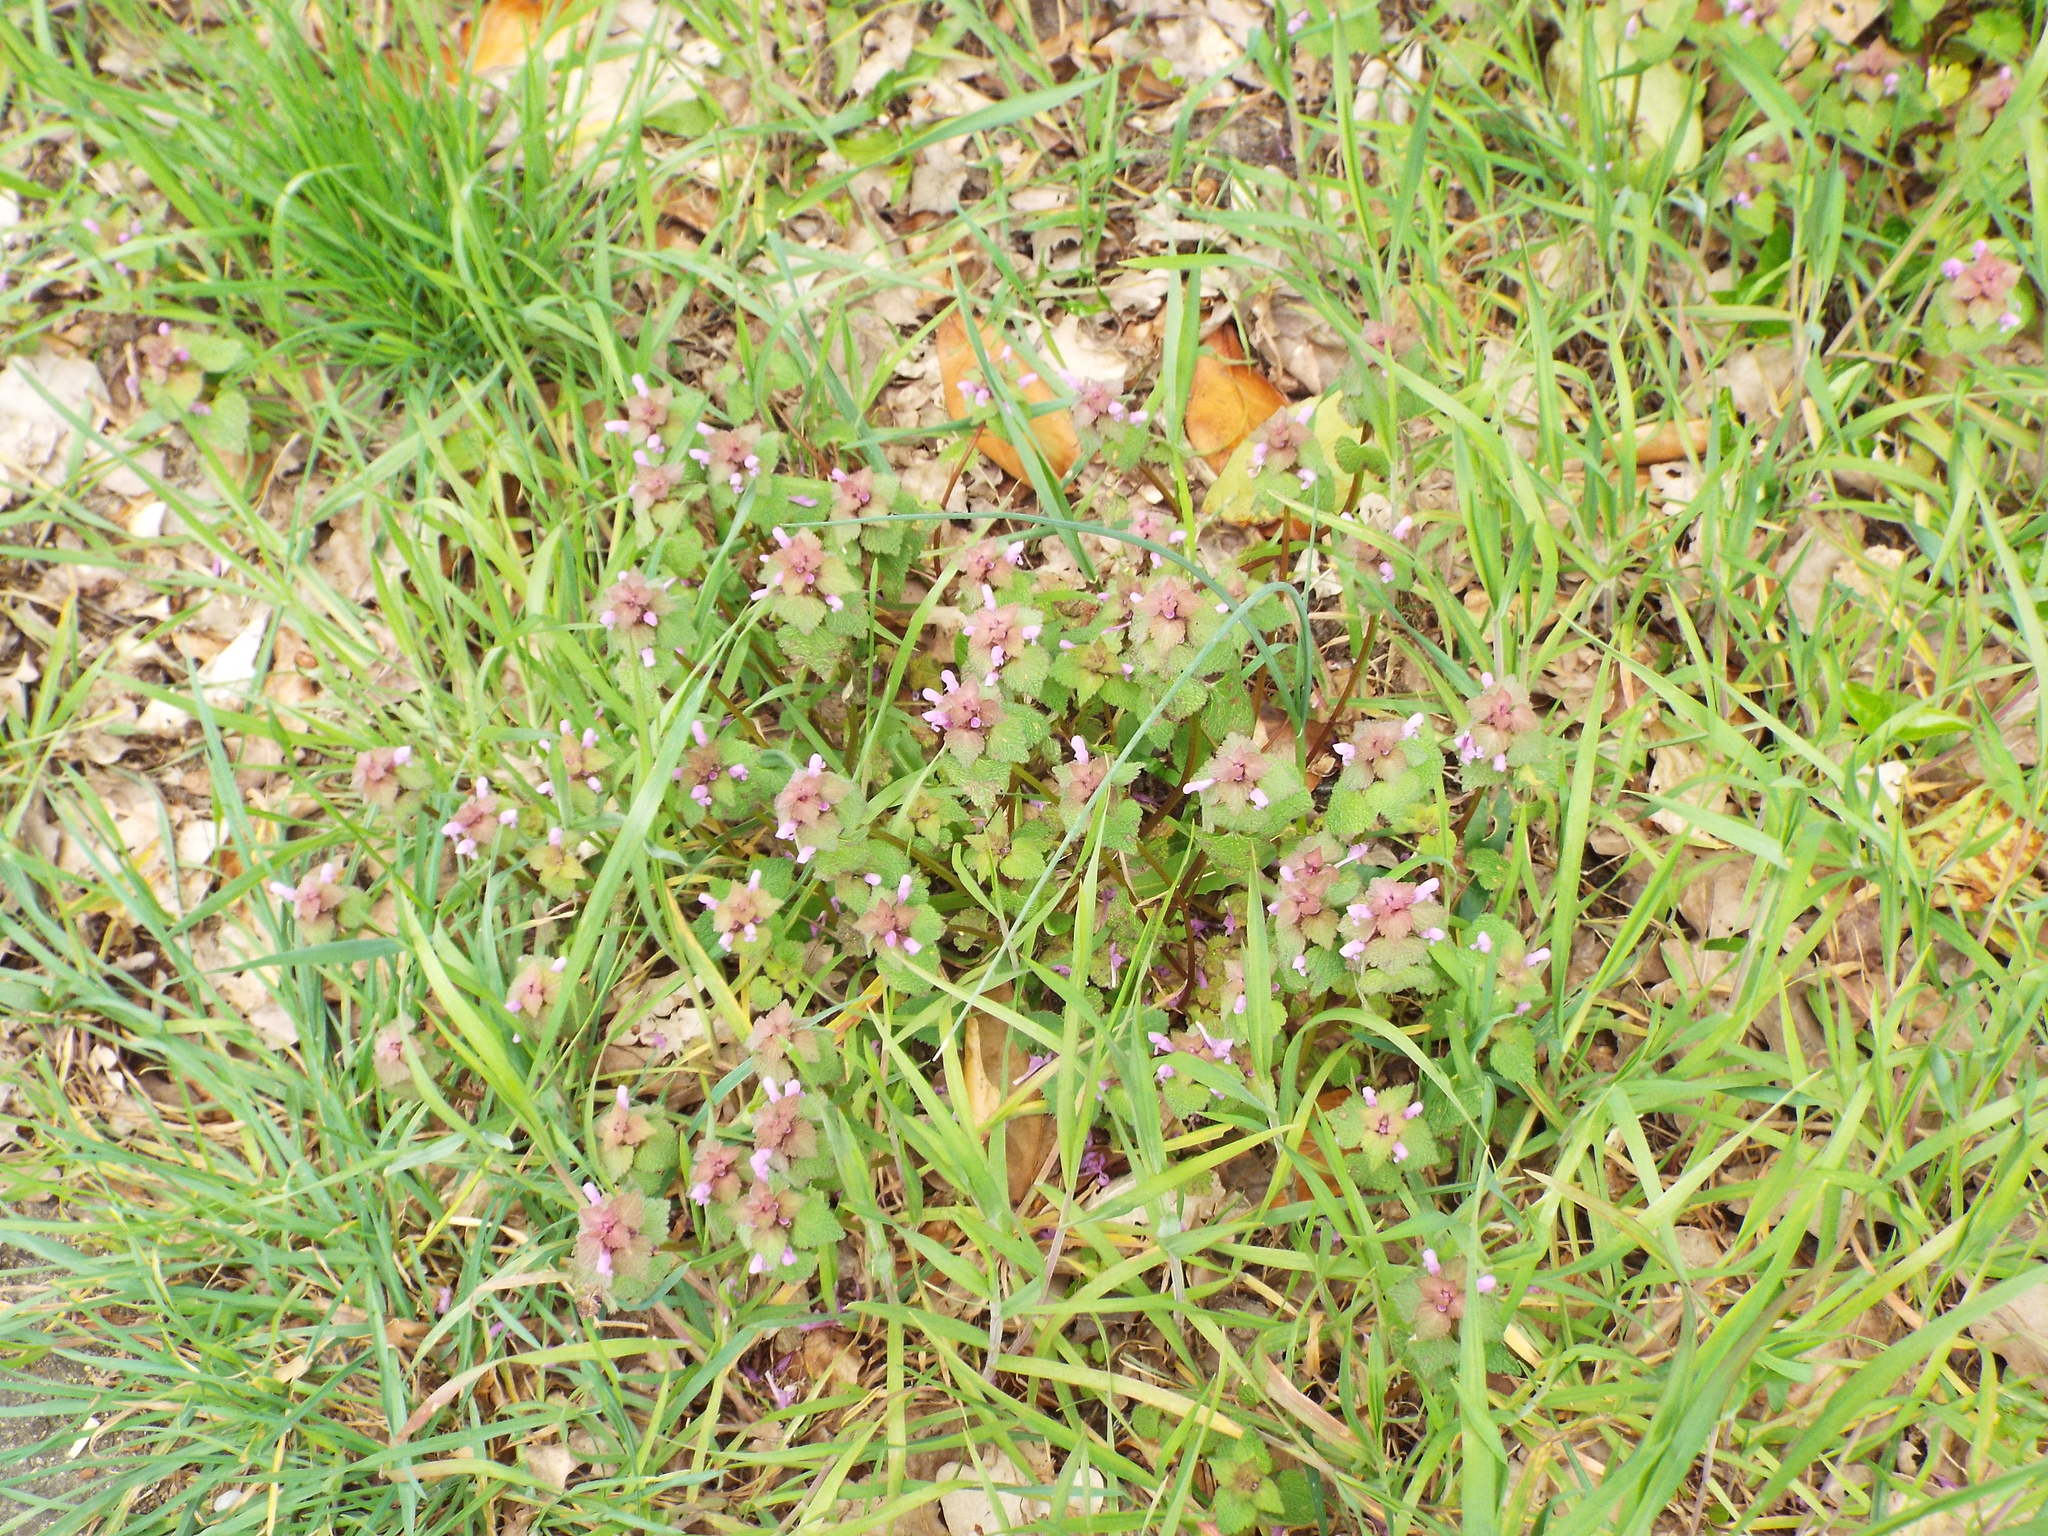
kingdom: Plantae
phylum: Tracheophyta
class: Magnoliopsida
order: Lamiales
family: Lamiaceae
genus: Lamium
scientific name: Lamium purpureum
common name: Red dead-nettle
